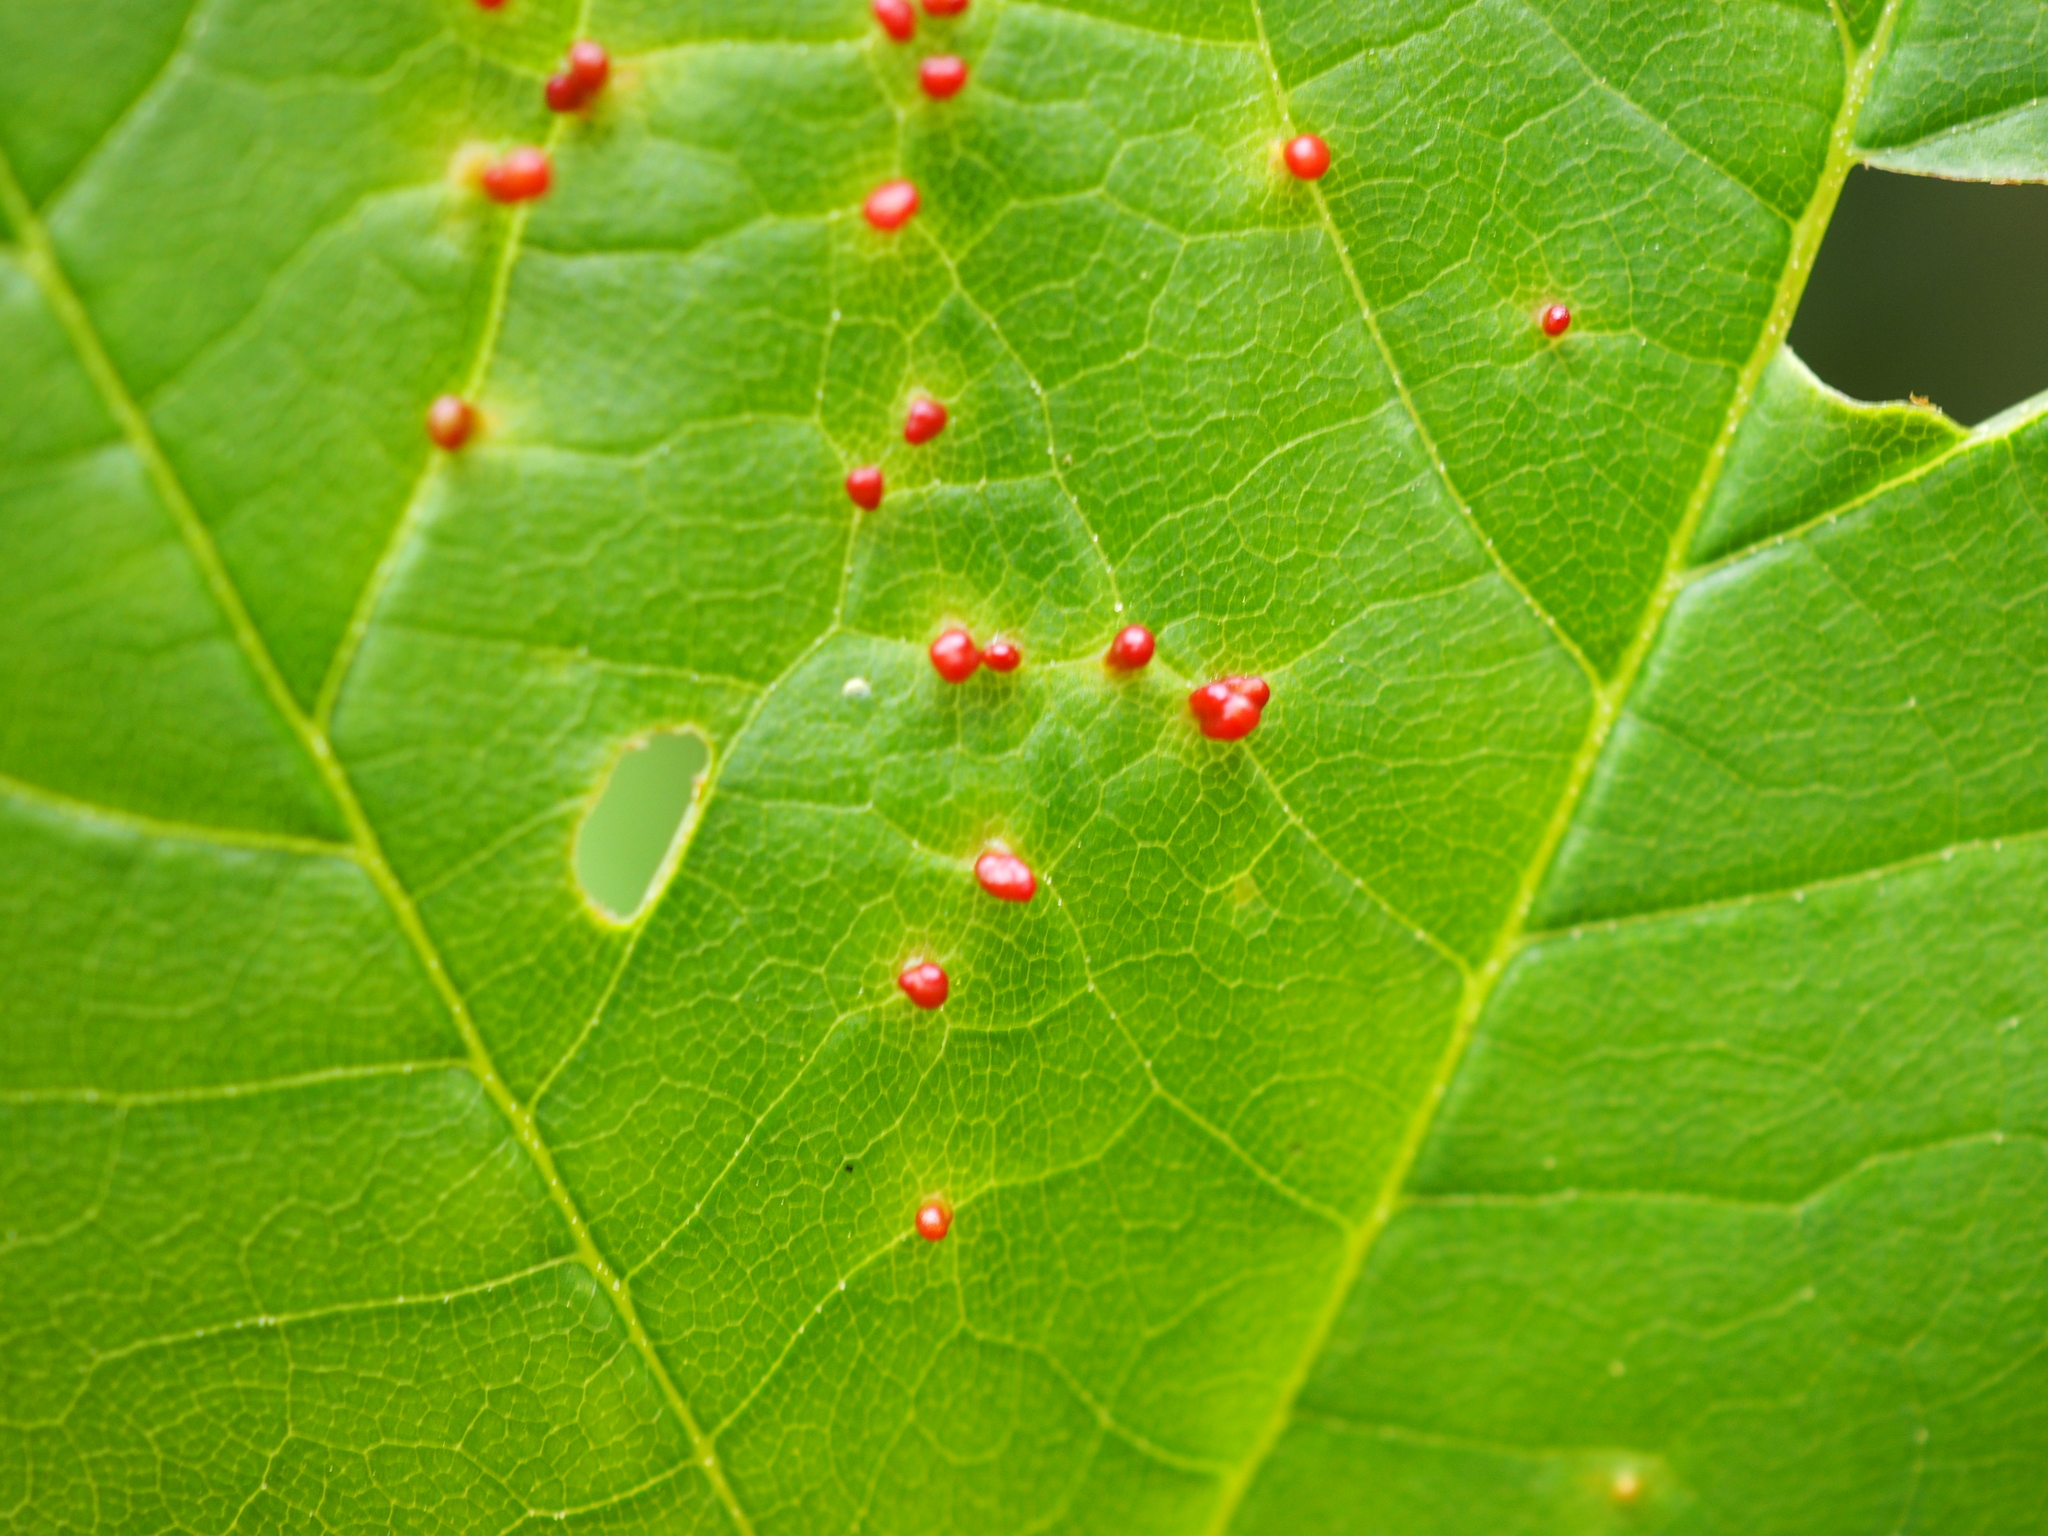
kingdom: Animalia
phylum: Arthropoda
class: Arachnida
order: Trombidiformes
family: Eriophyidae
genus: Aceria
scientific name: Aceria cephaloneus
